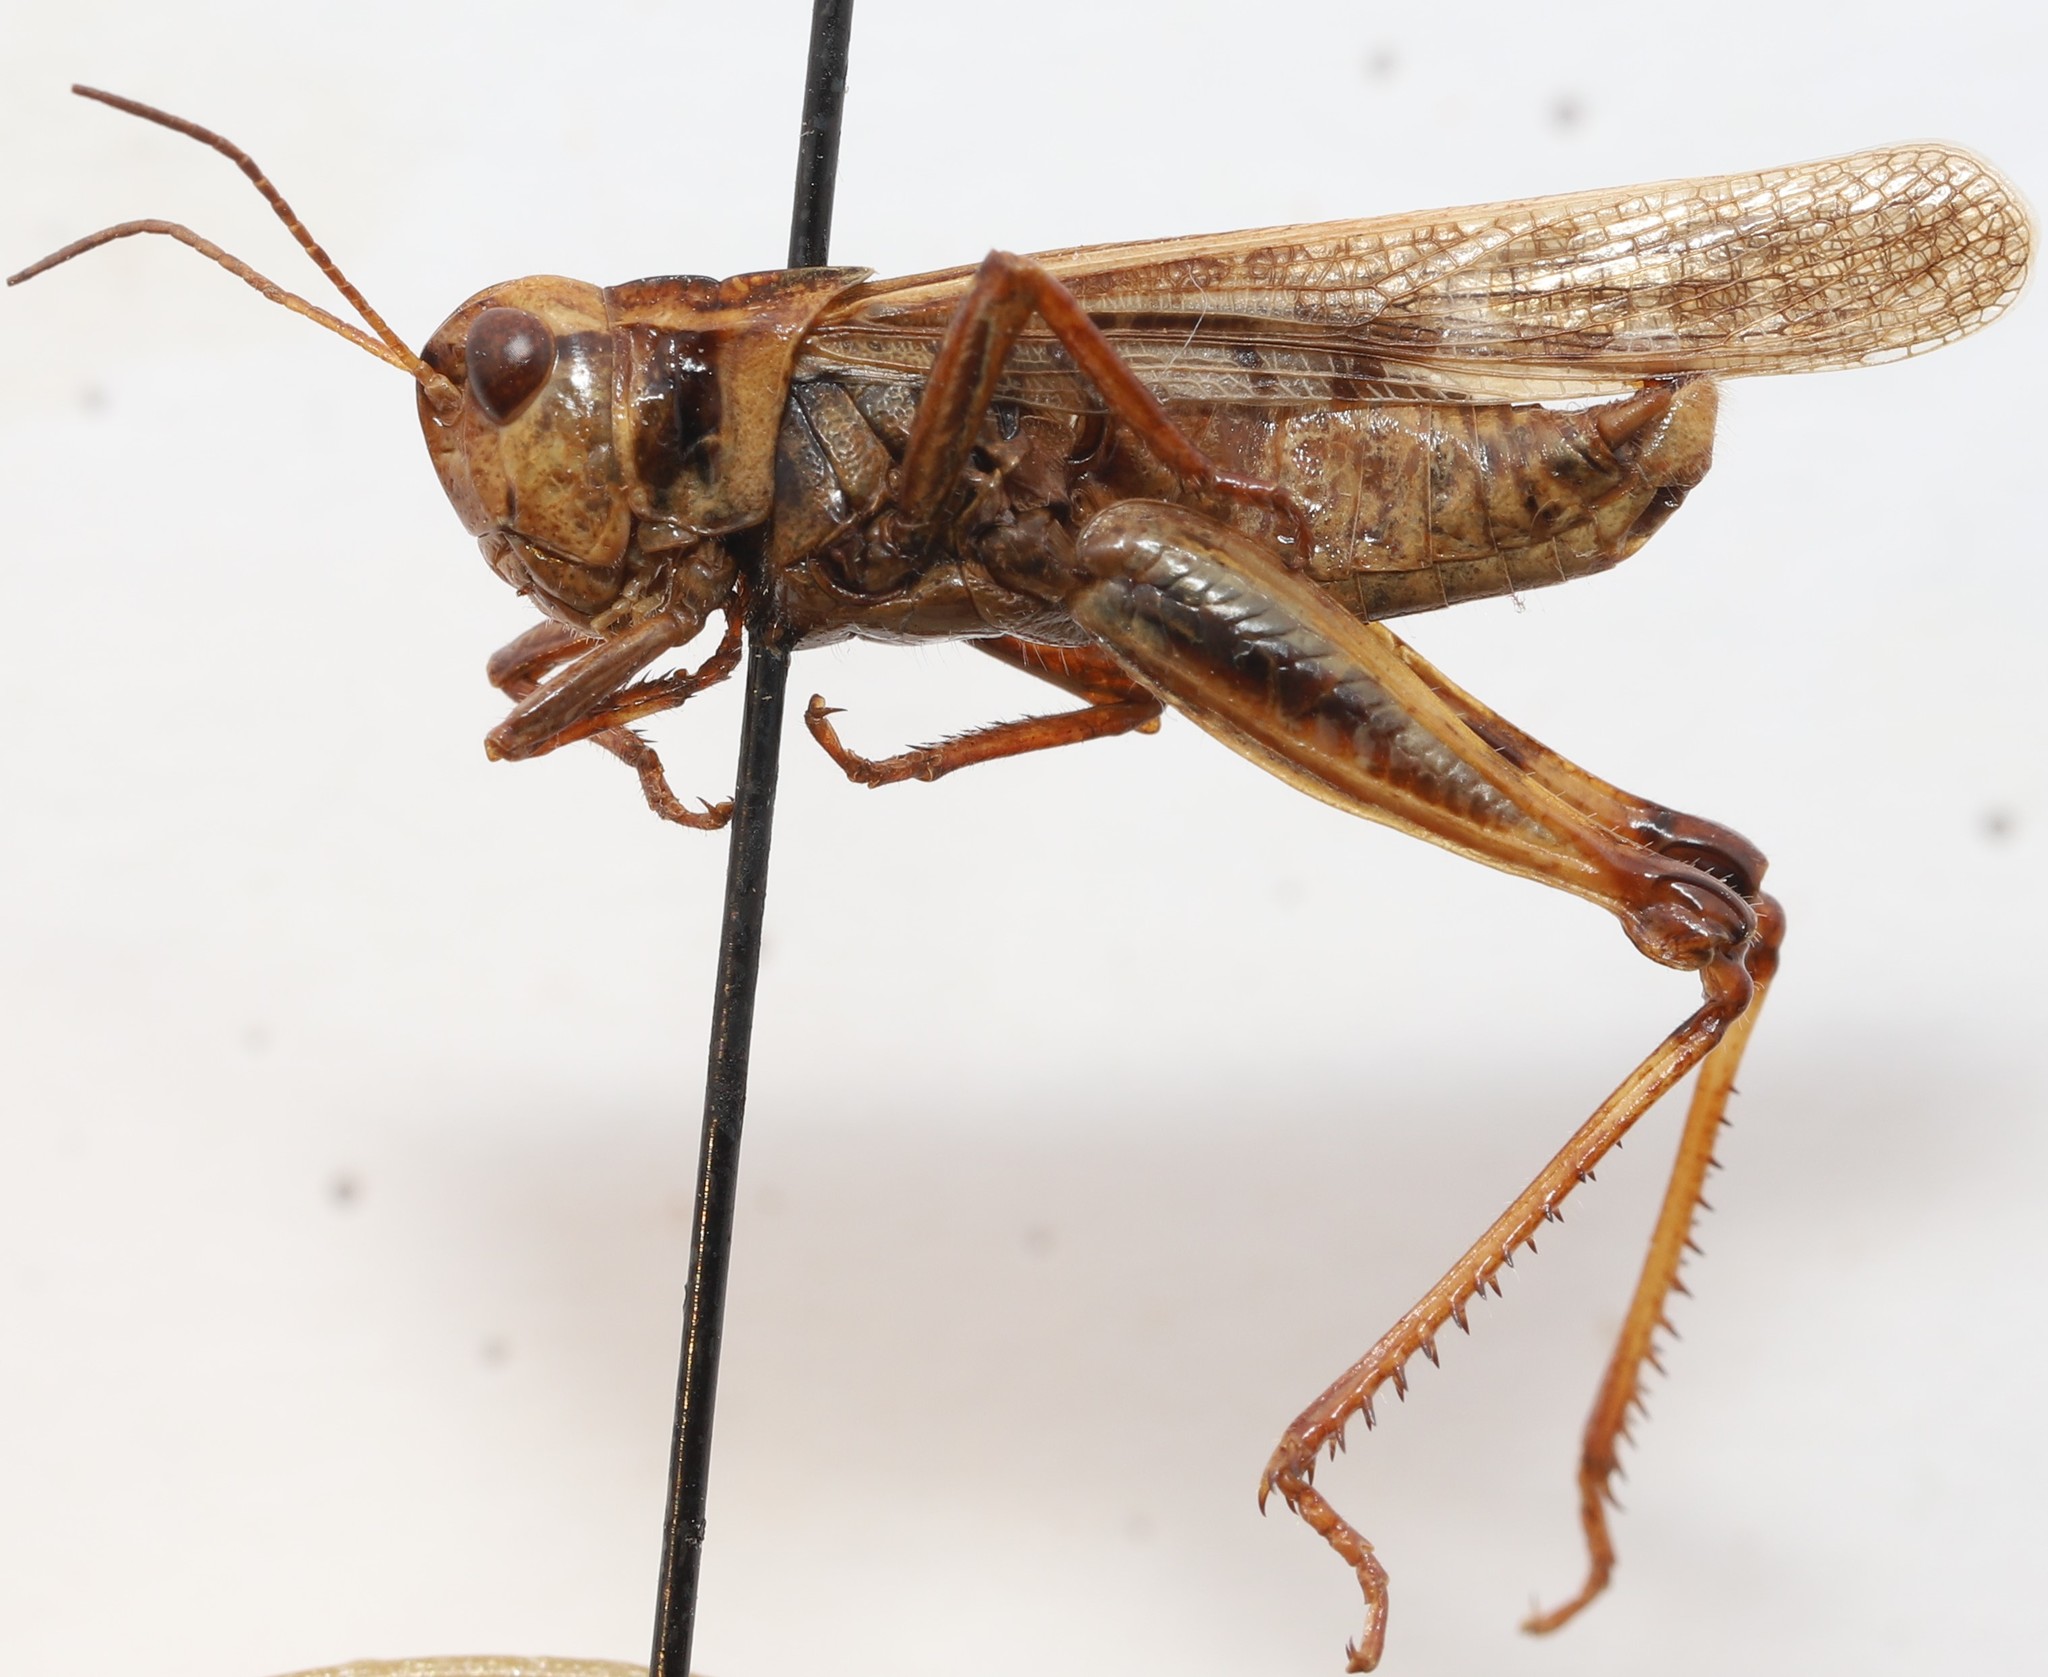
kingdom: Animalia
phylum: Arthropoda
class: Insecta
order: Orthoptera
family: Acrididae
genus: Camnula
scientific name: Camnula pellucida
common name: Clear-winged grasshopper
